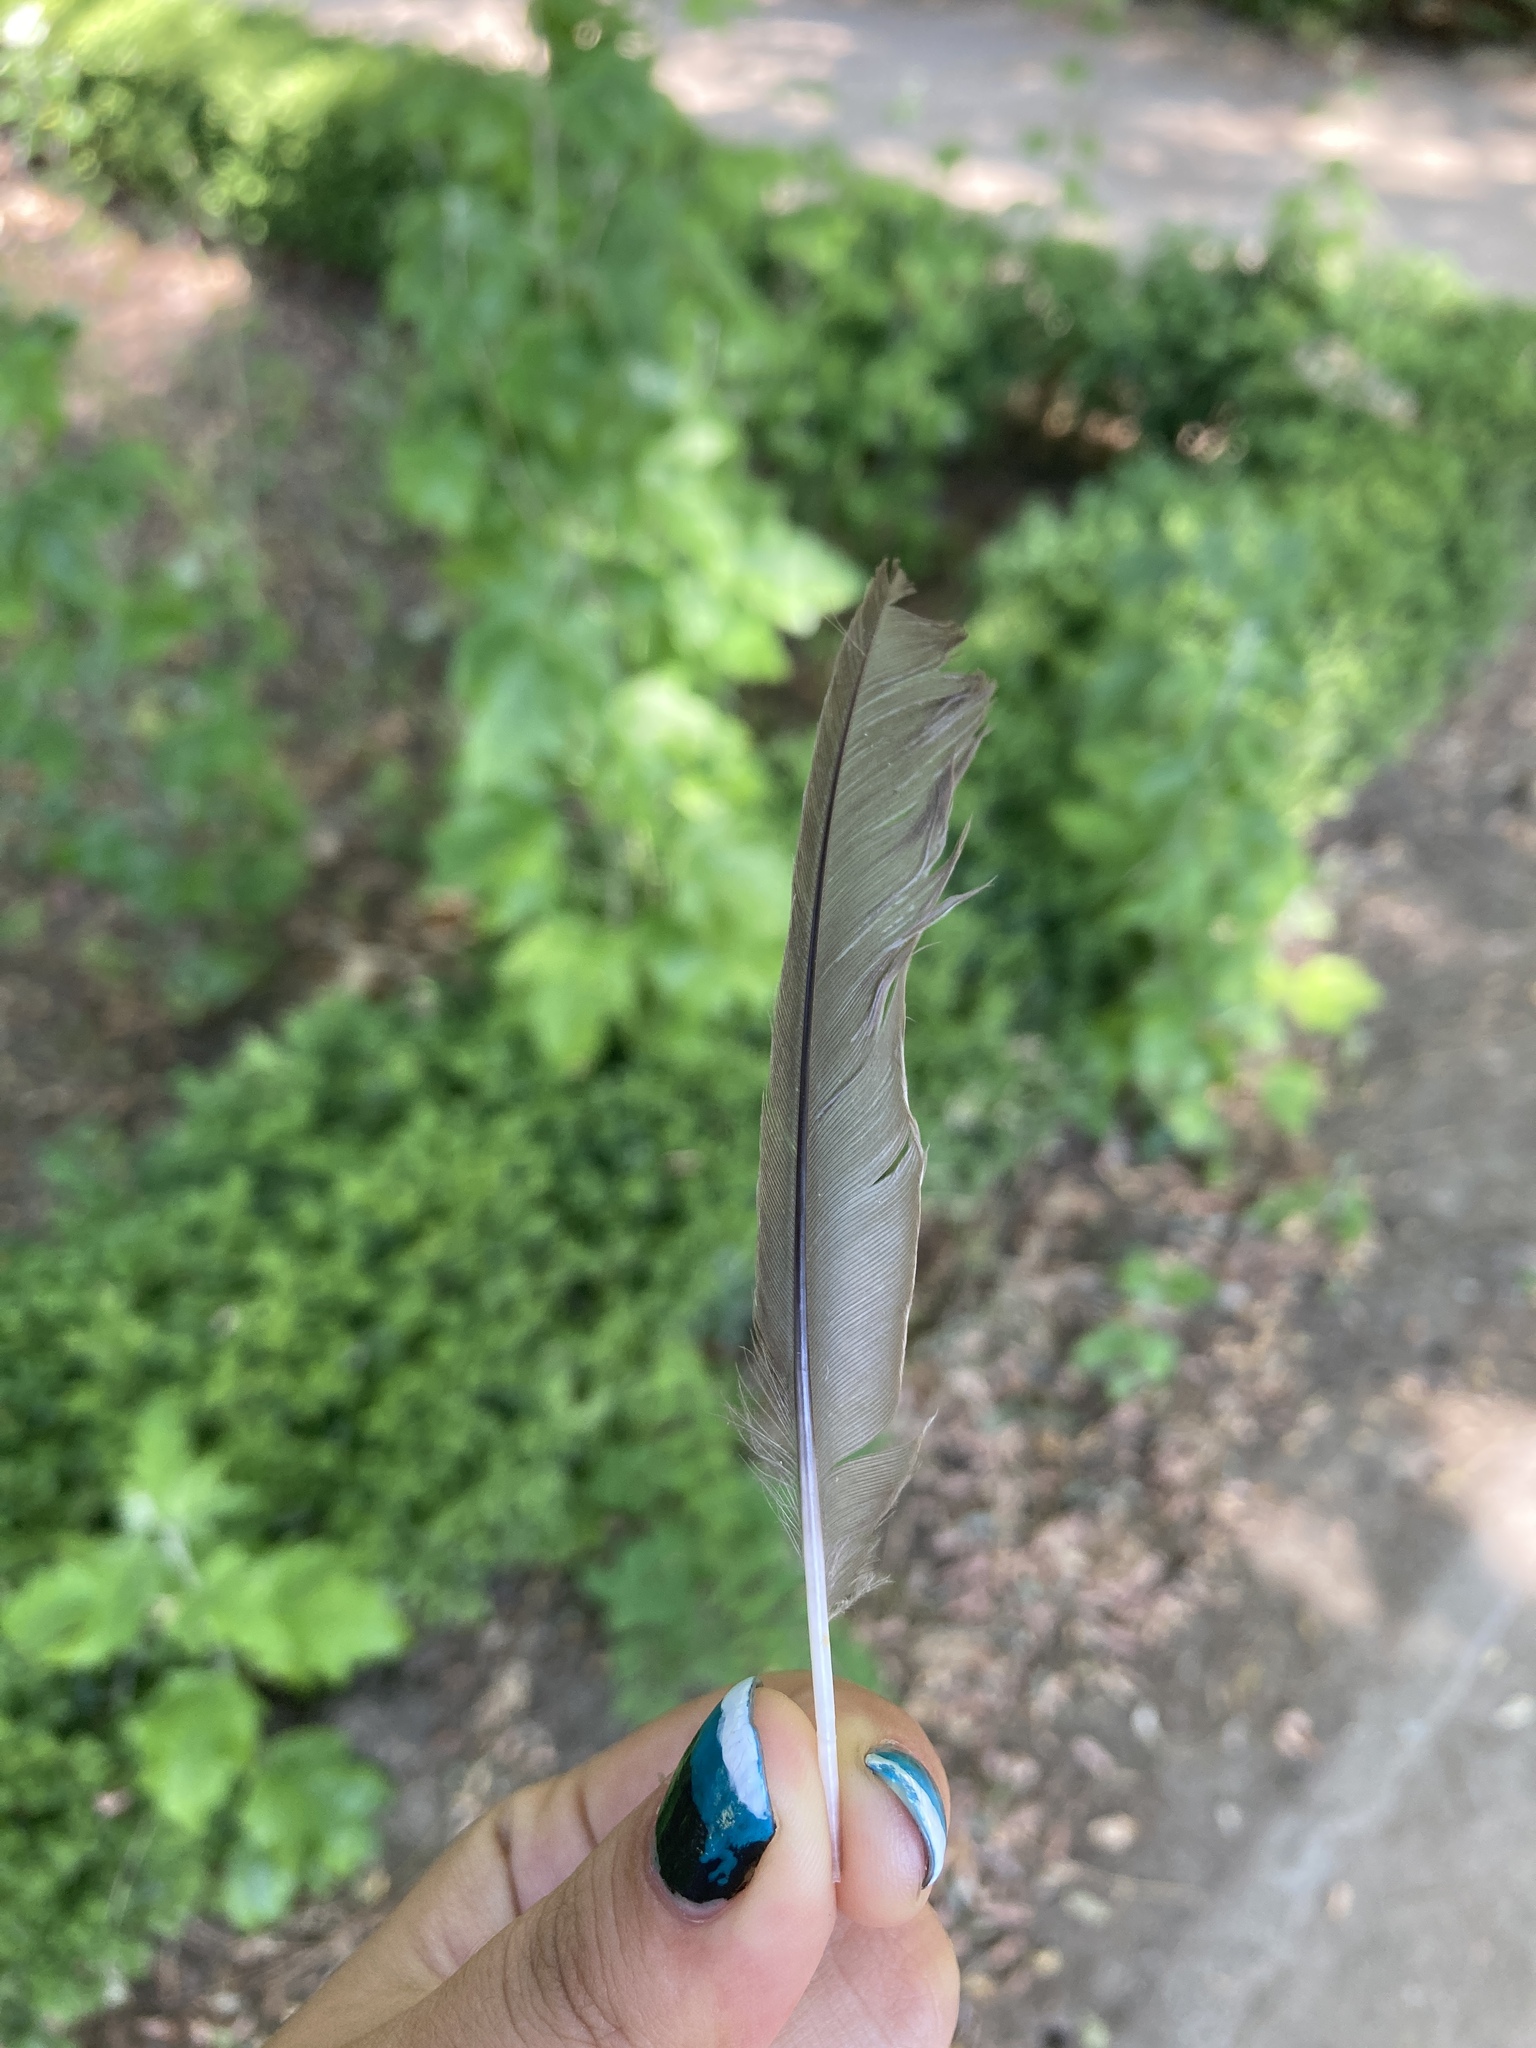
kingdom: Animalia
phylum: Chordata
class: Aves
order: Passeriformes
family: Turdidae
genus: Turdus
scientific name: Turdus merula
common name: Common blackbird
